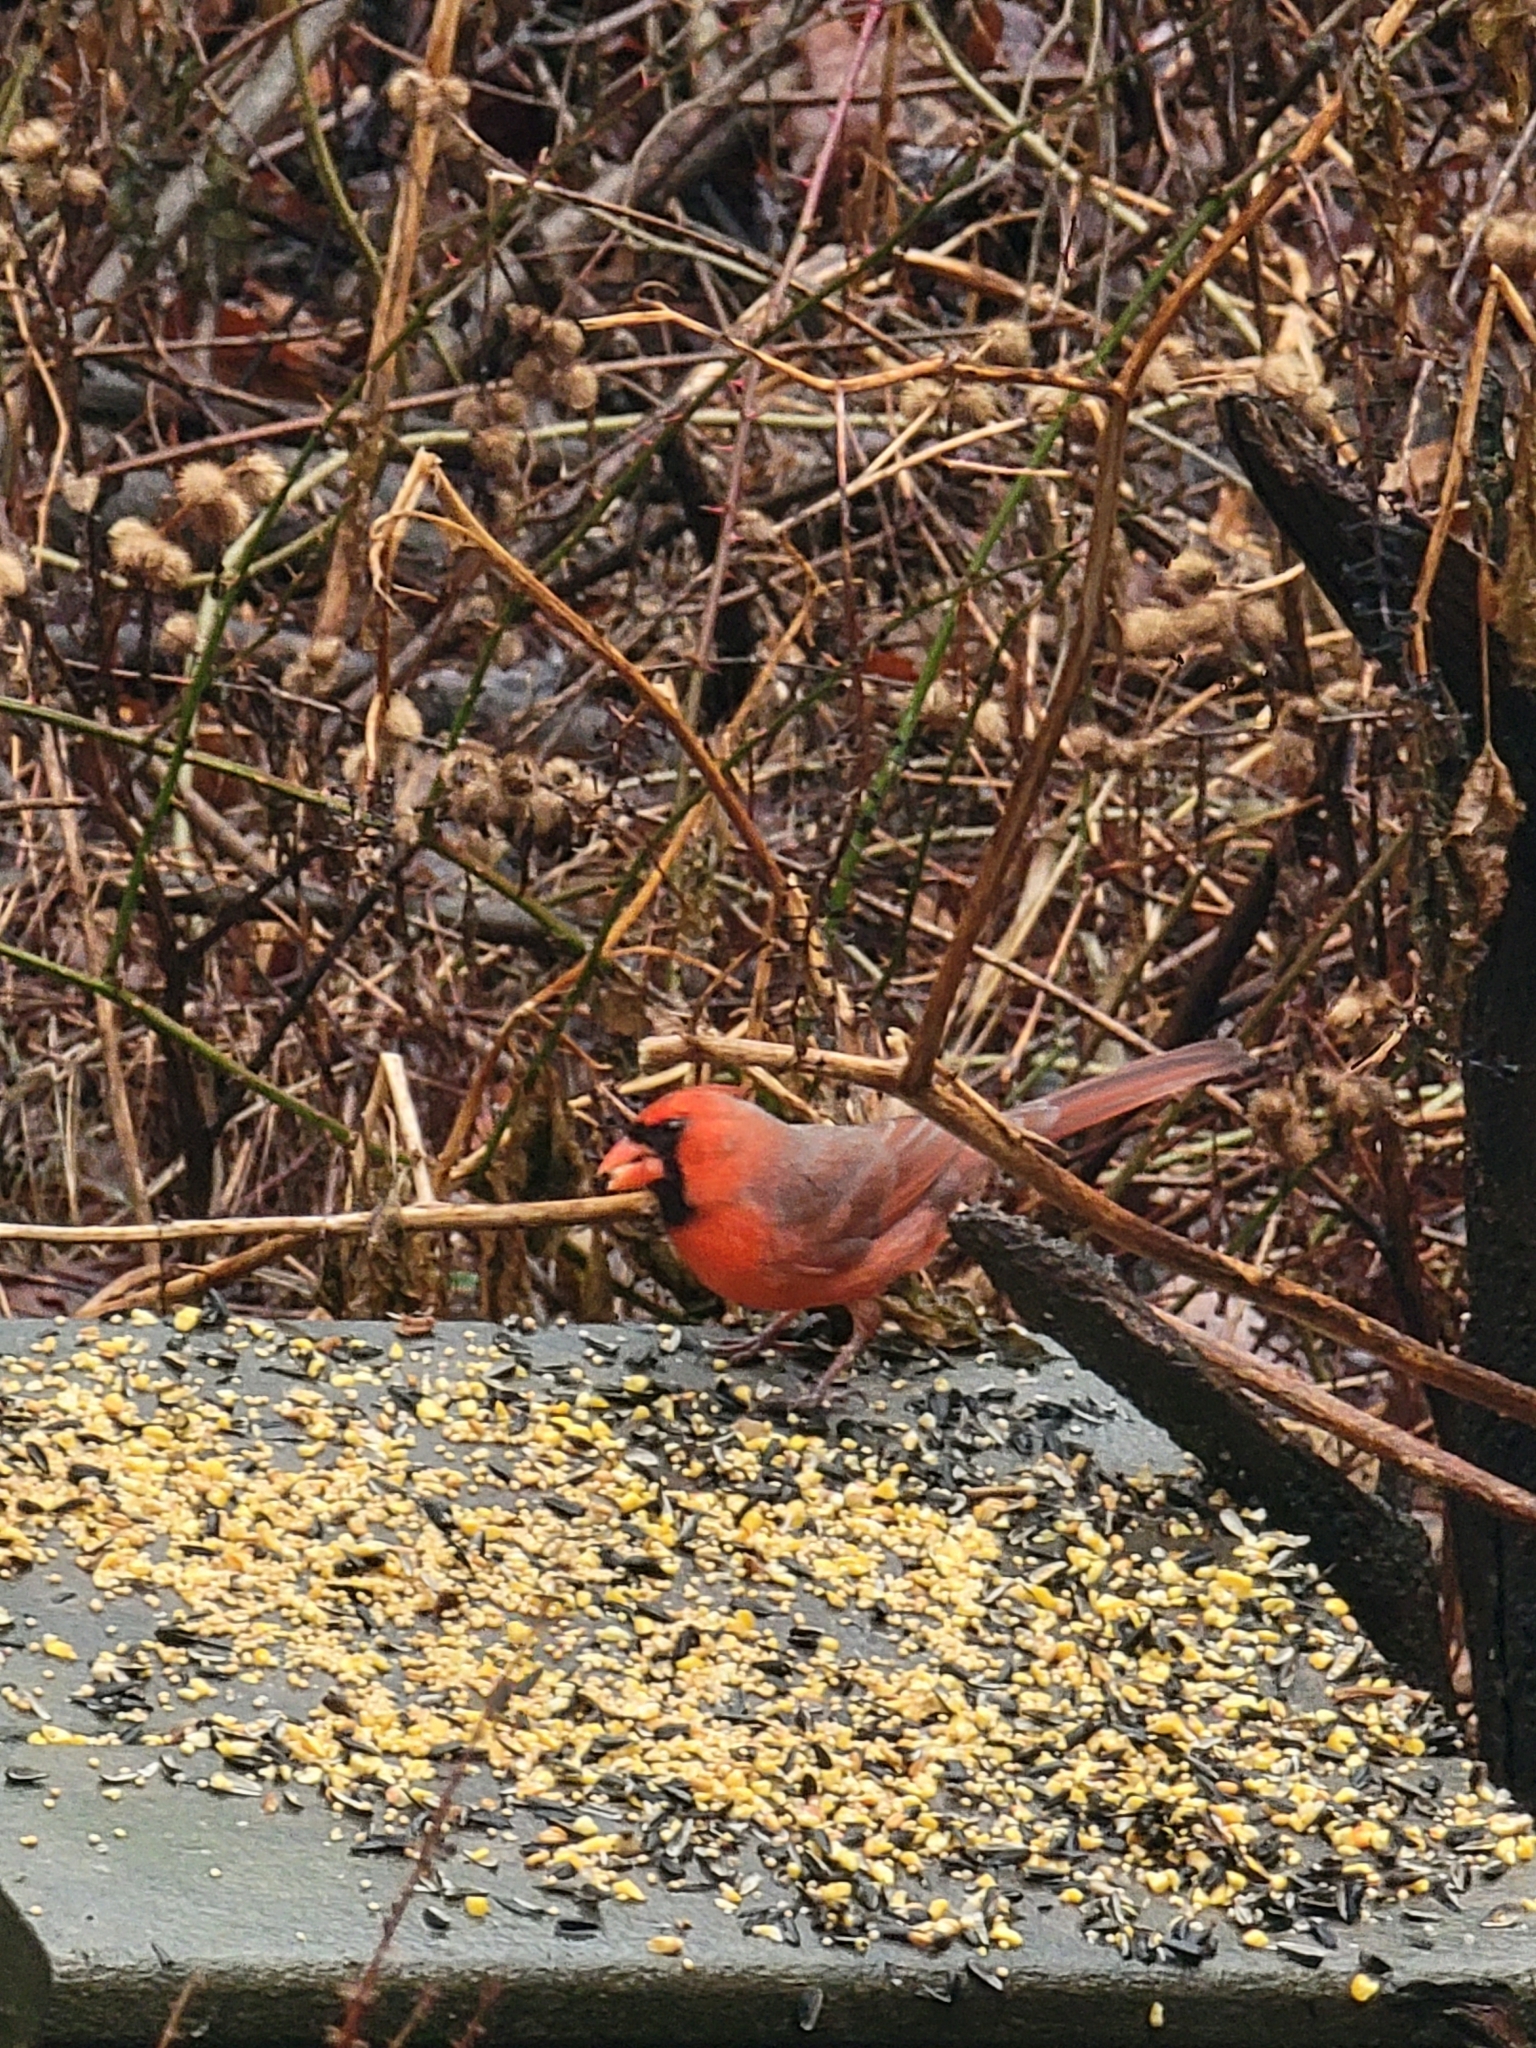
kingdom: Animalia
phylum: Chordata
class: Aves
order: Passeriformes
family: Cardinalidae
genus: Cardinalis
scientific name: Cardinalis cardinalis
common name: Northern cardinal
